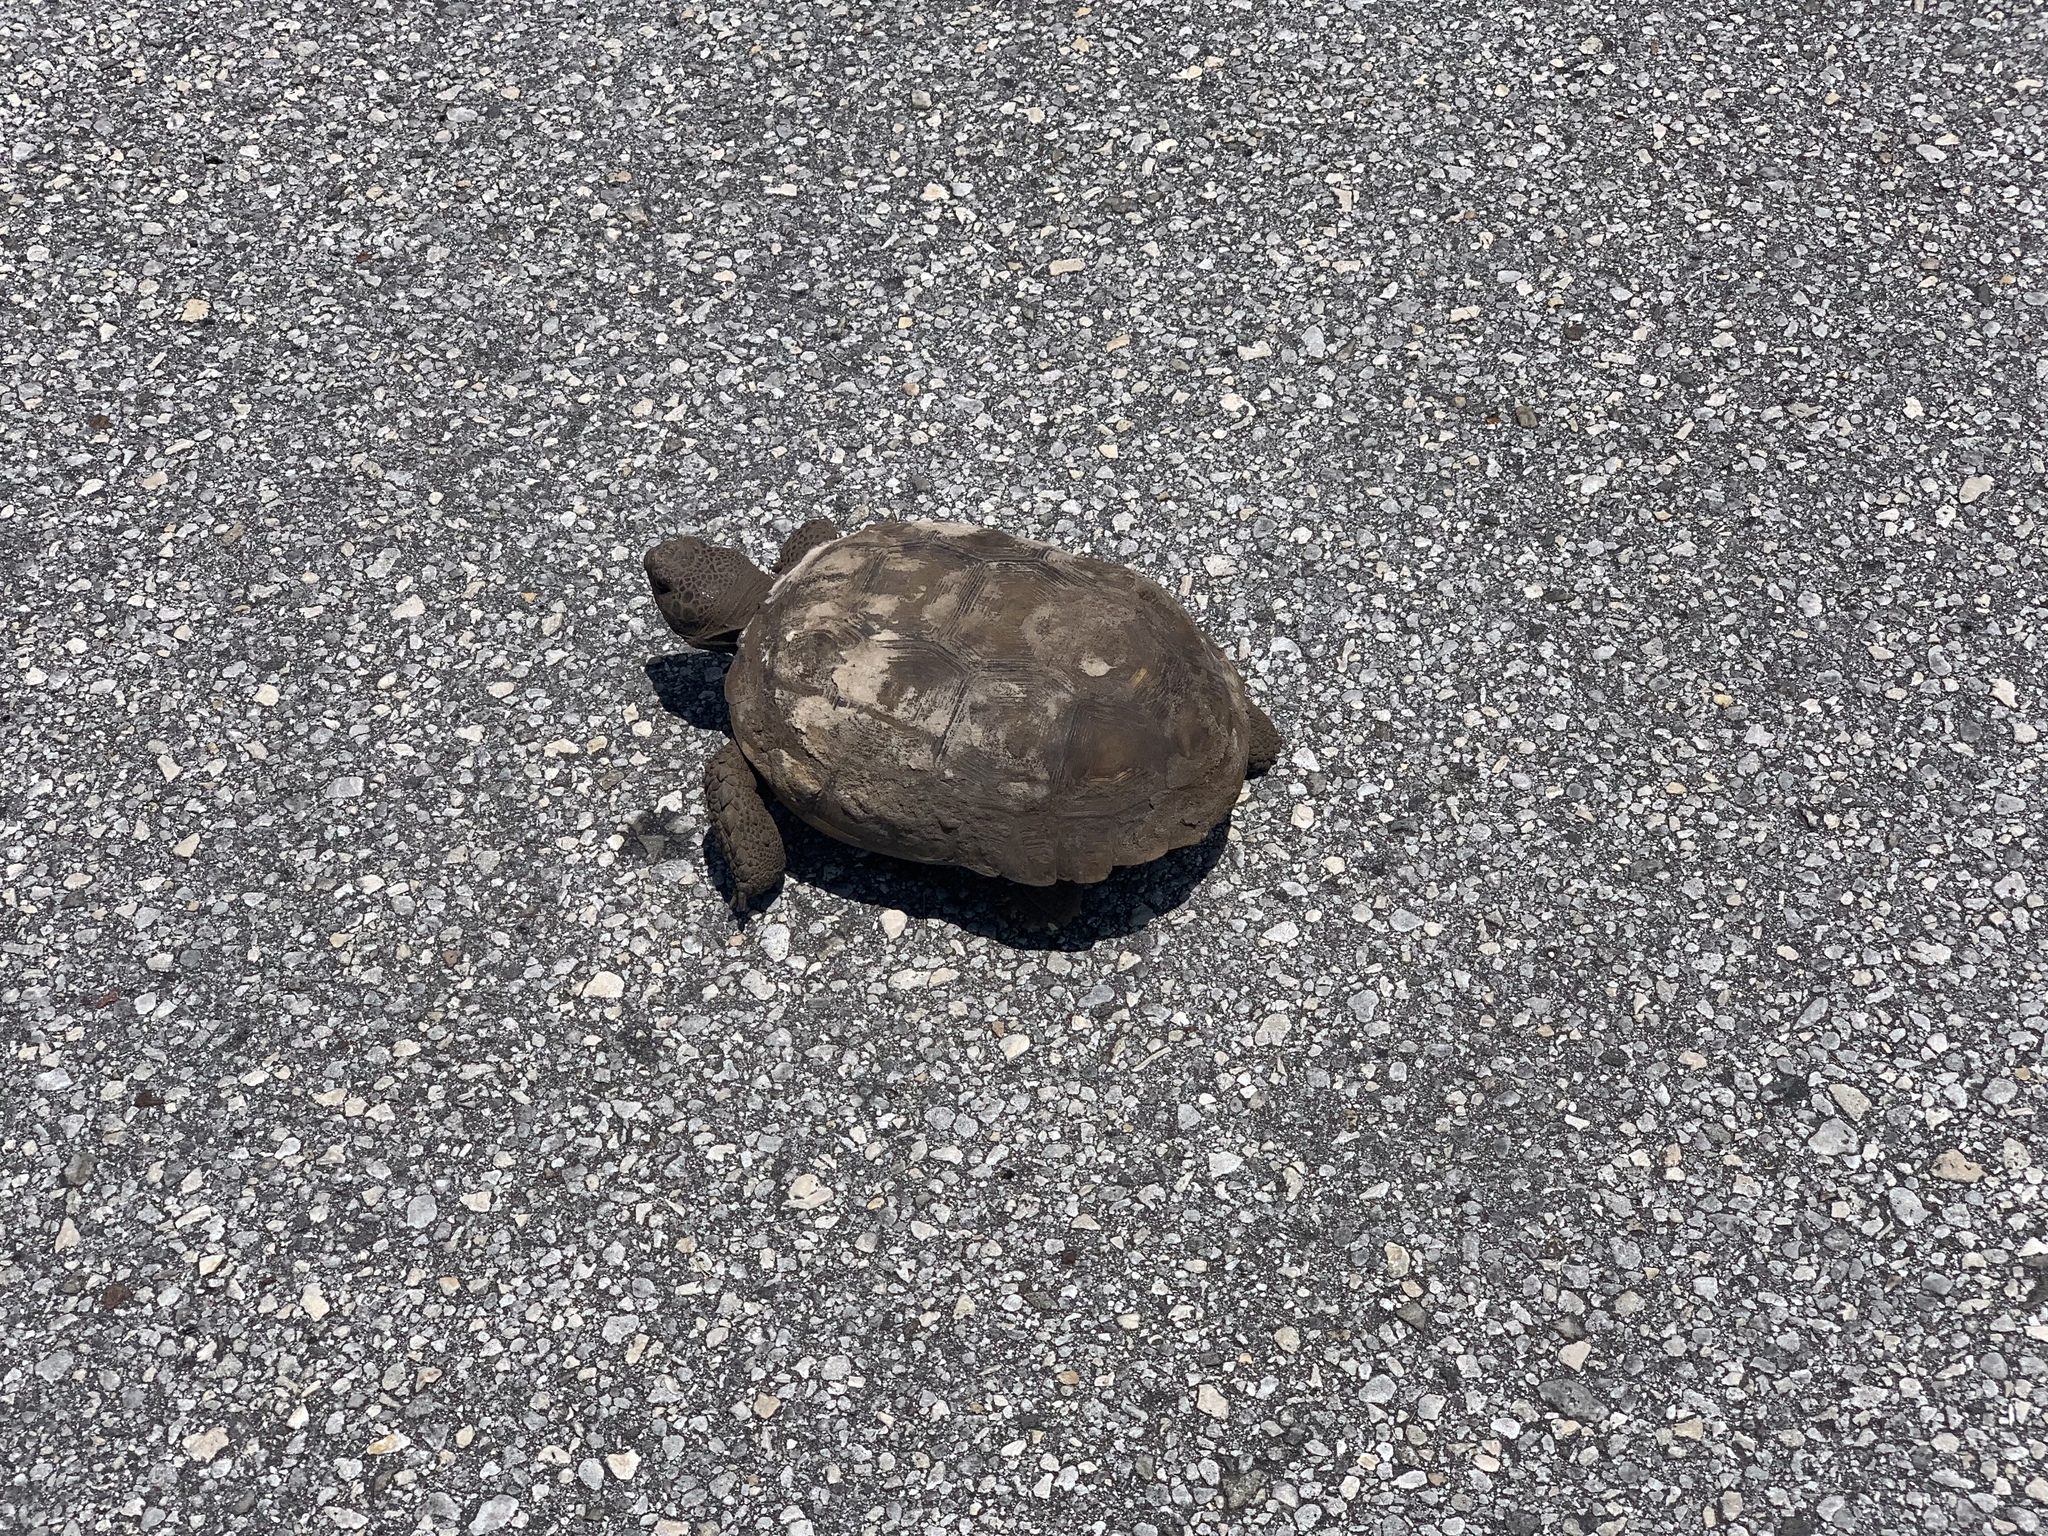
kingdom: Animalia
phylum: Chordata
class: Testudines
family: Testudinidae
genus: Gopherus
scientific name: Gopherus polyphemus
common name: Florida gopher tortoise
